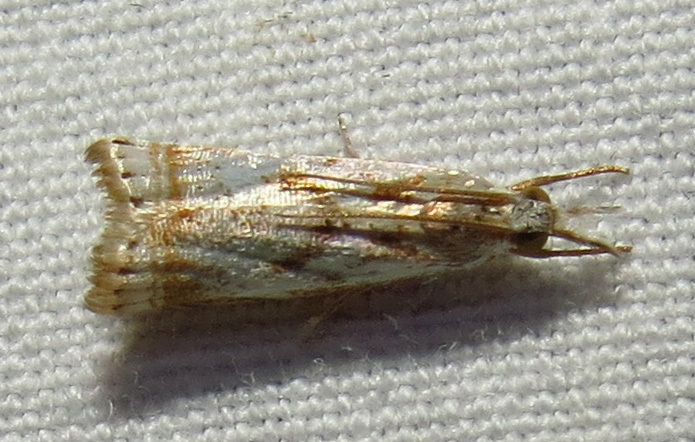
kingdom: Animalia
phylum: Arthropoda
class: Insecta
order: Lepidoptera
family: Crambidae
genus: Microcrambus
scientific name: Microcrambus elegans
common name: Elegant grass-veneer
